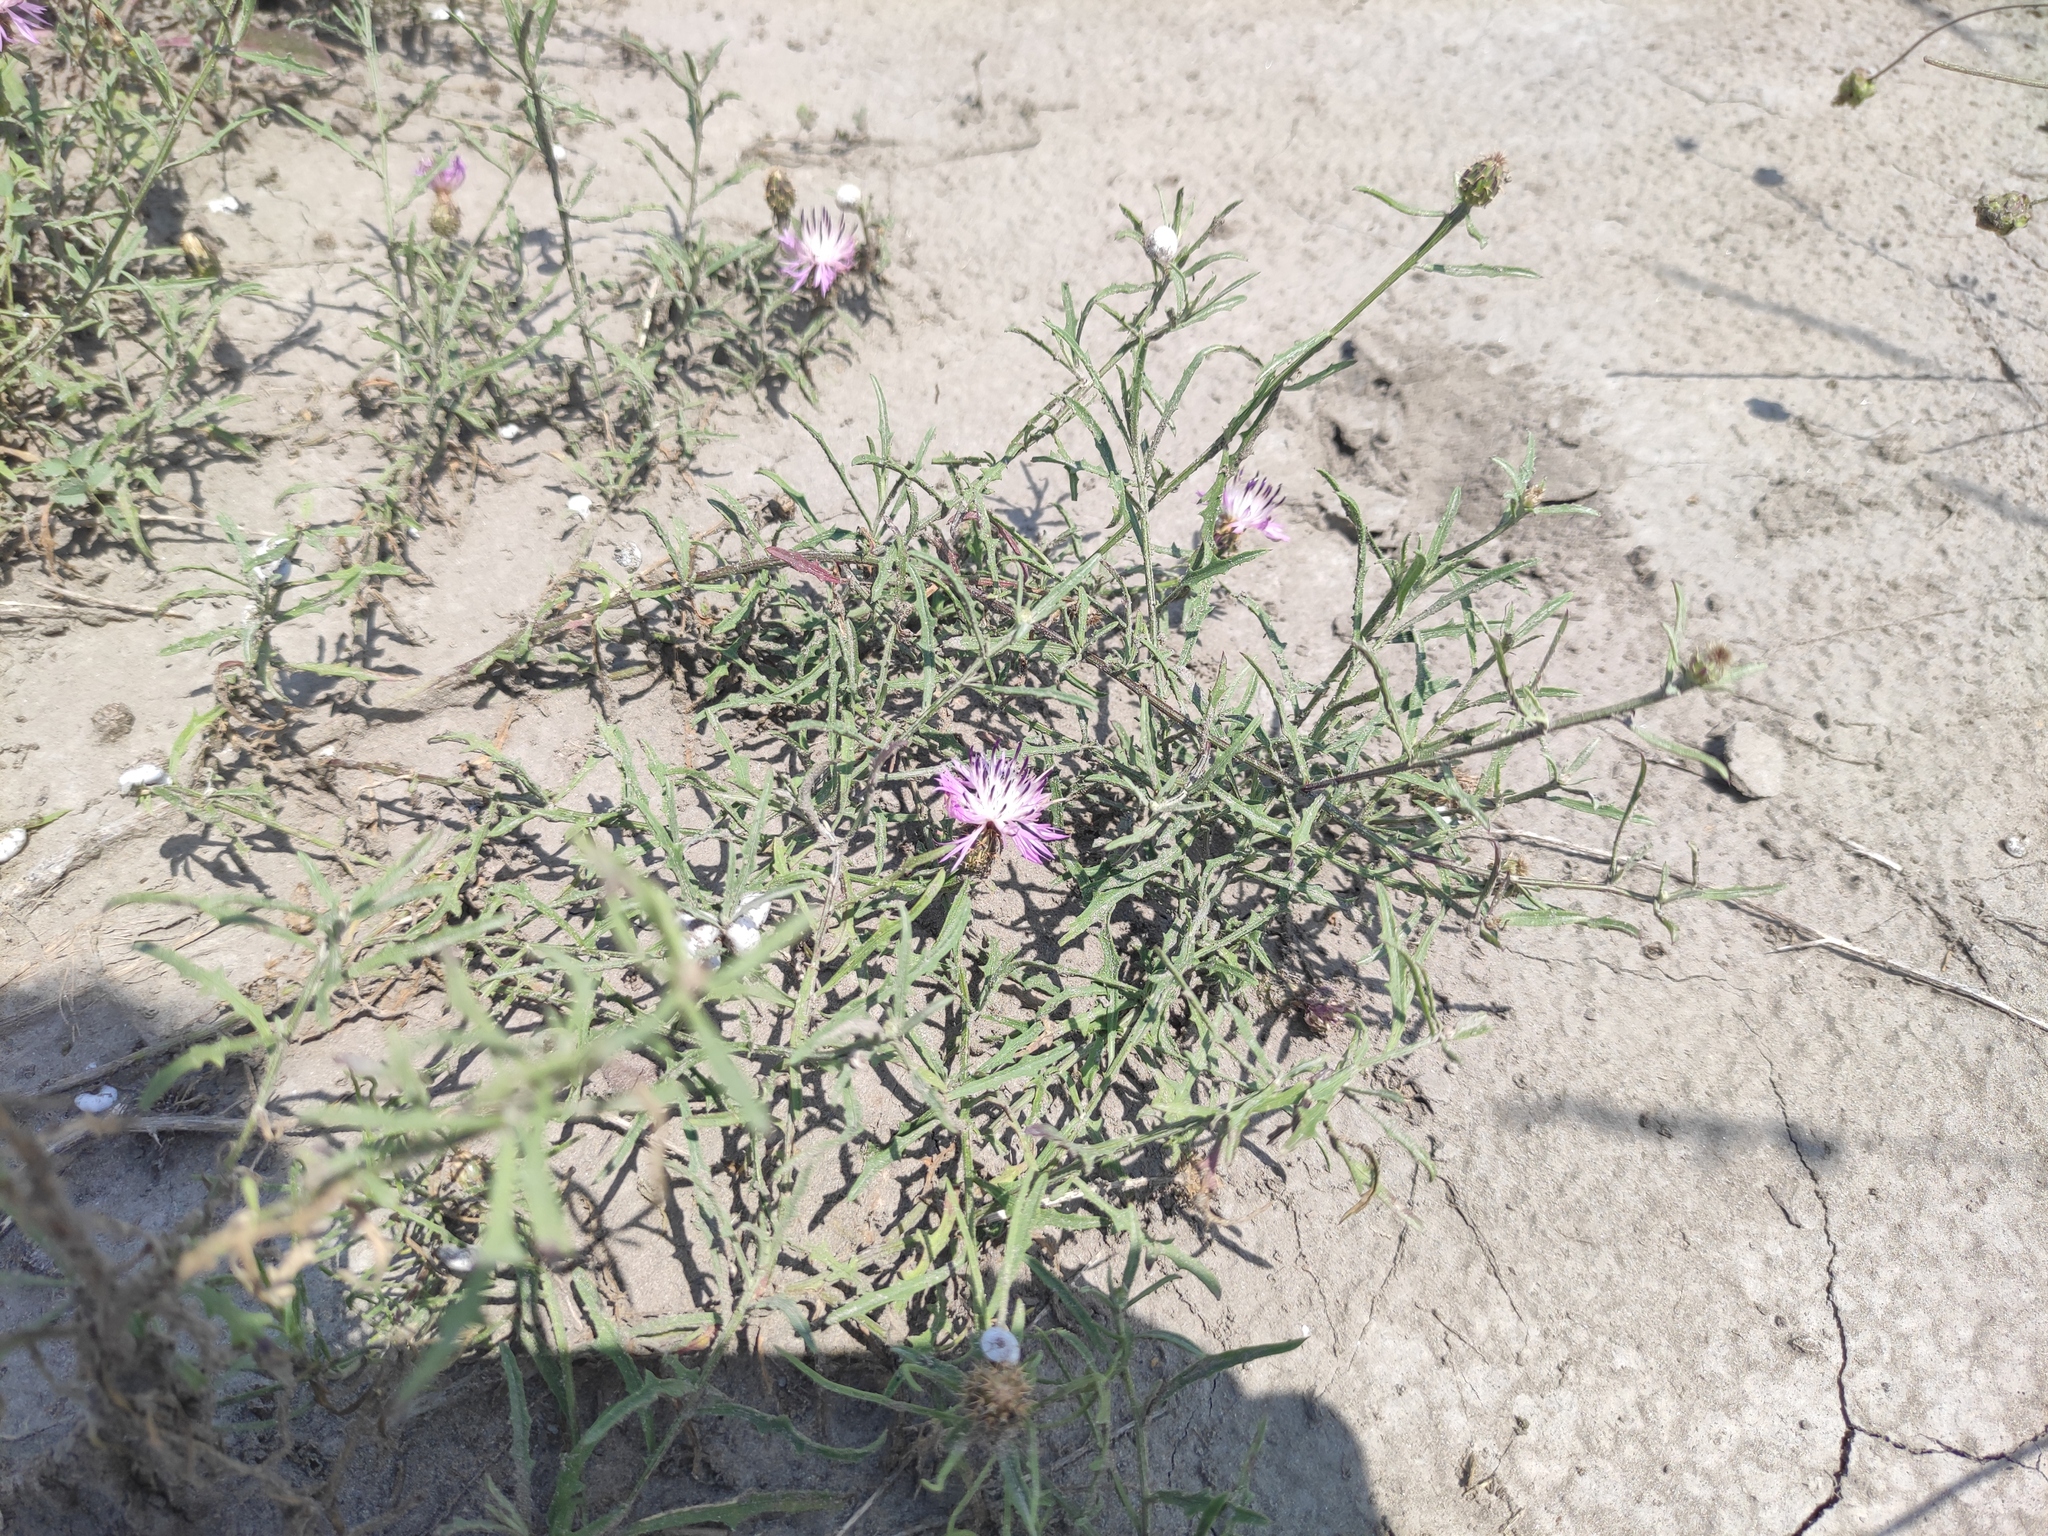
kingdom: Plantae
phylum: Tracheophyta
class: Magnoliopsida
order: Asterales
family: Asteraceae
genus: Centaurea
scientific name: Centaurea aspera
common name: Rough star-thistle
